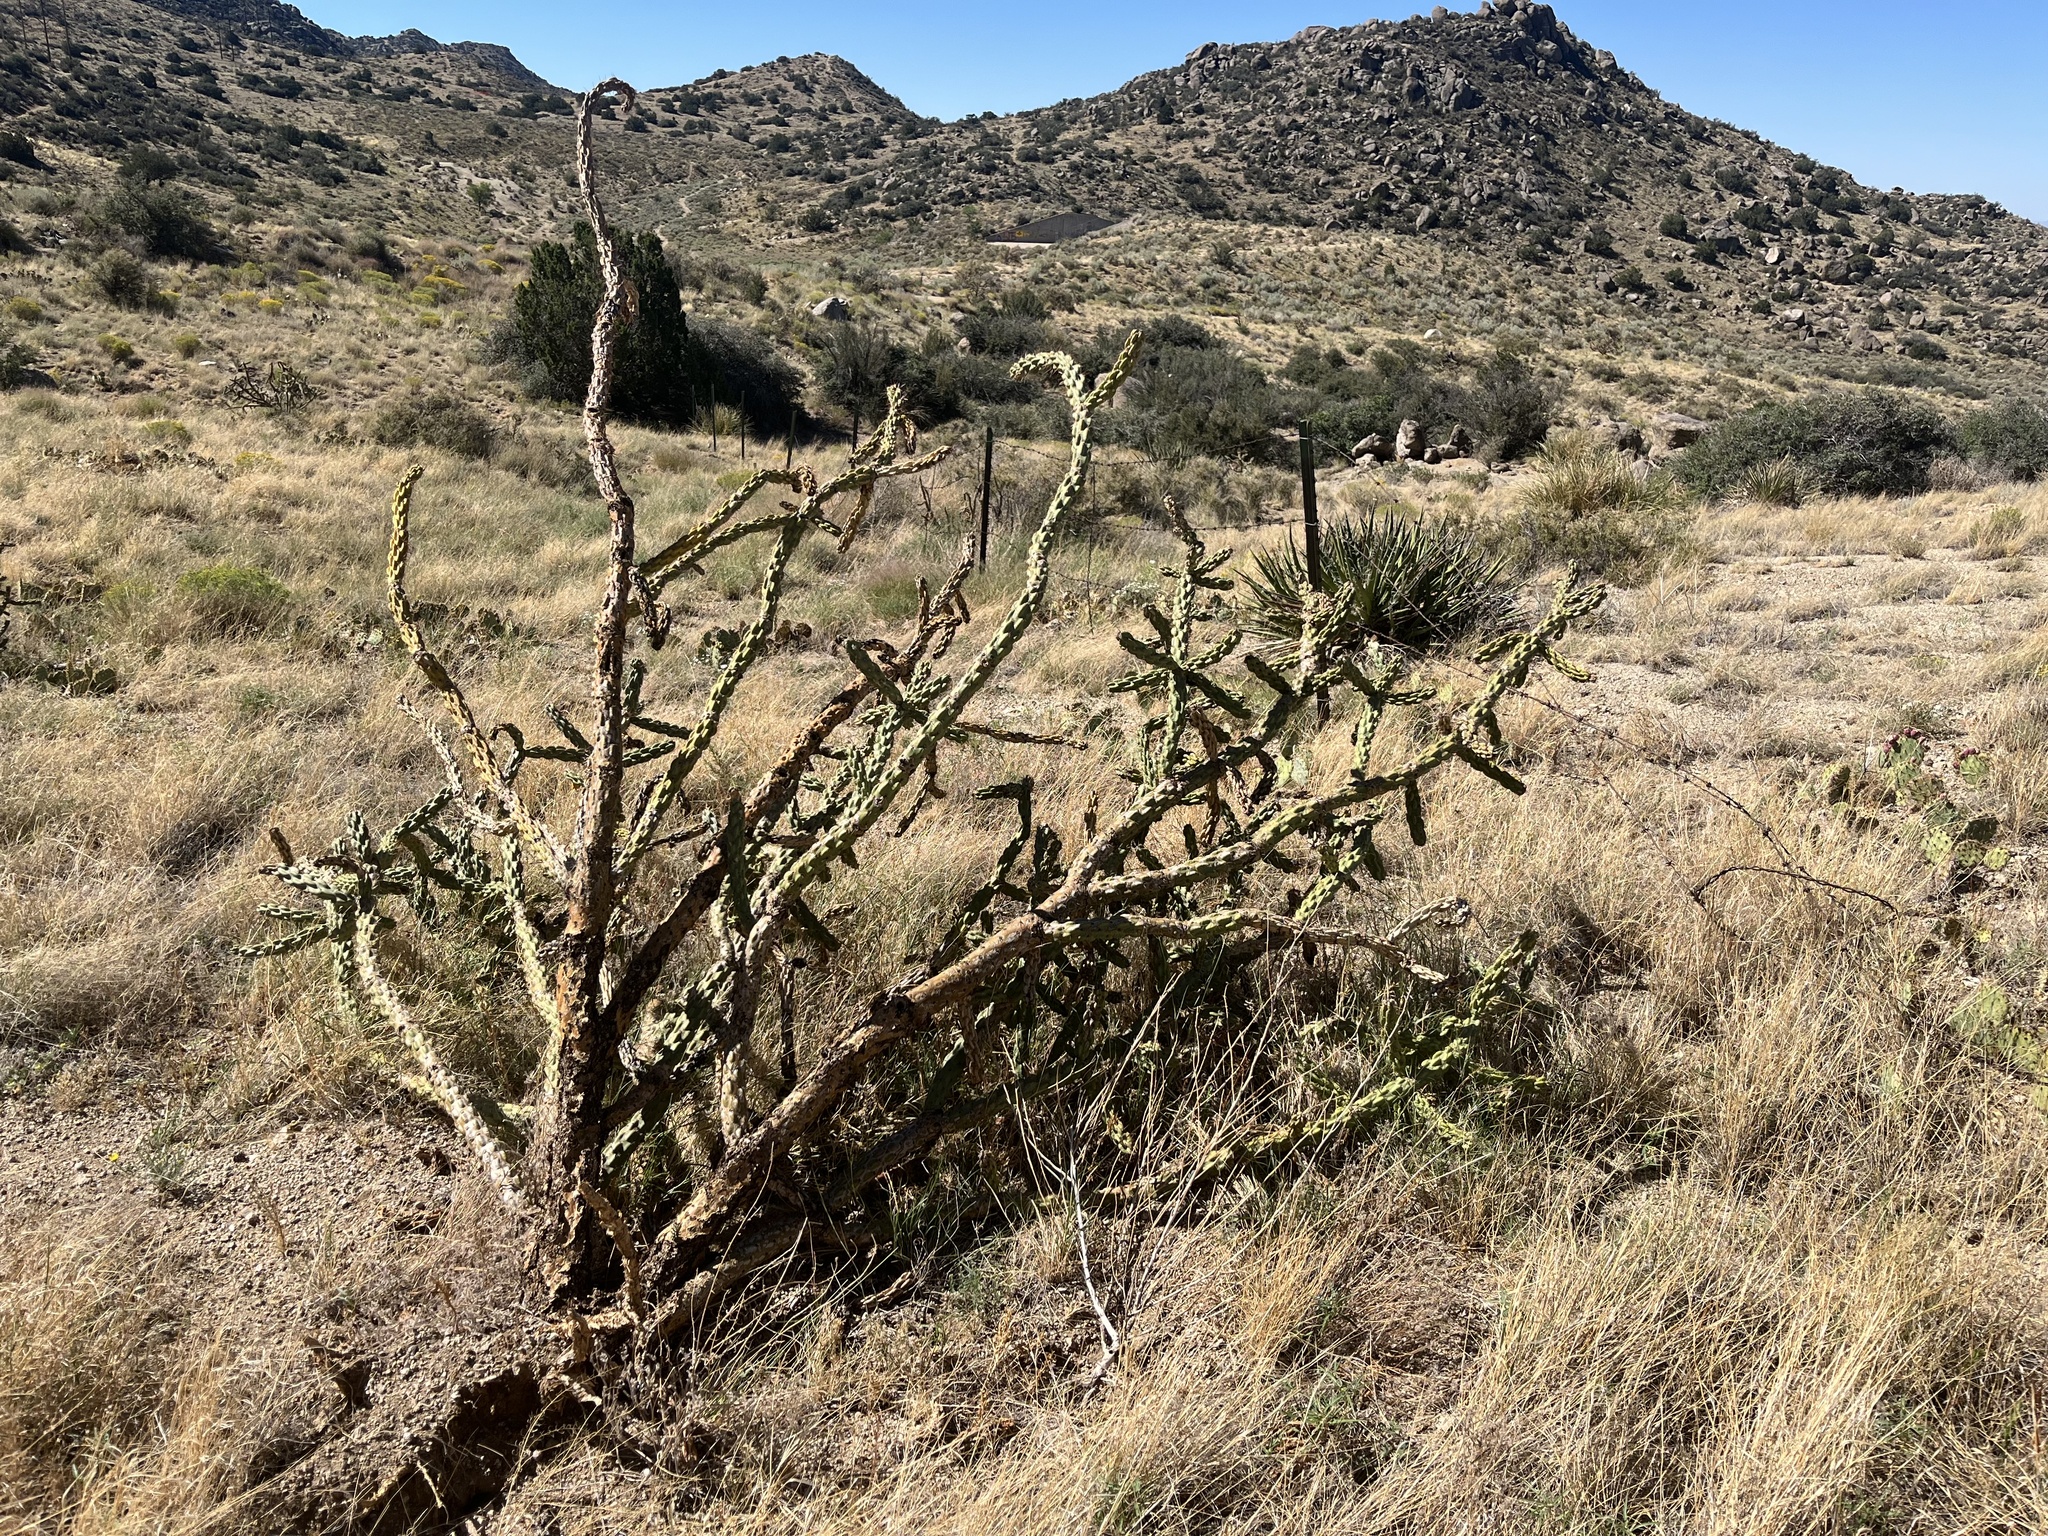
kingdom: Plantae
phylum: Tracheophyta
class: Magnoliopsida
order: Caryophyllales
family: Cactaceae
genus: Cylindropuntia
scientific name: Cylindropuntia imbricata
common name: Candelabrum cactus
